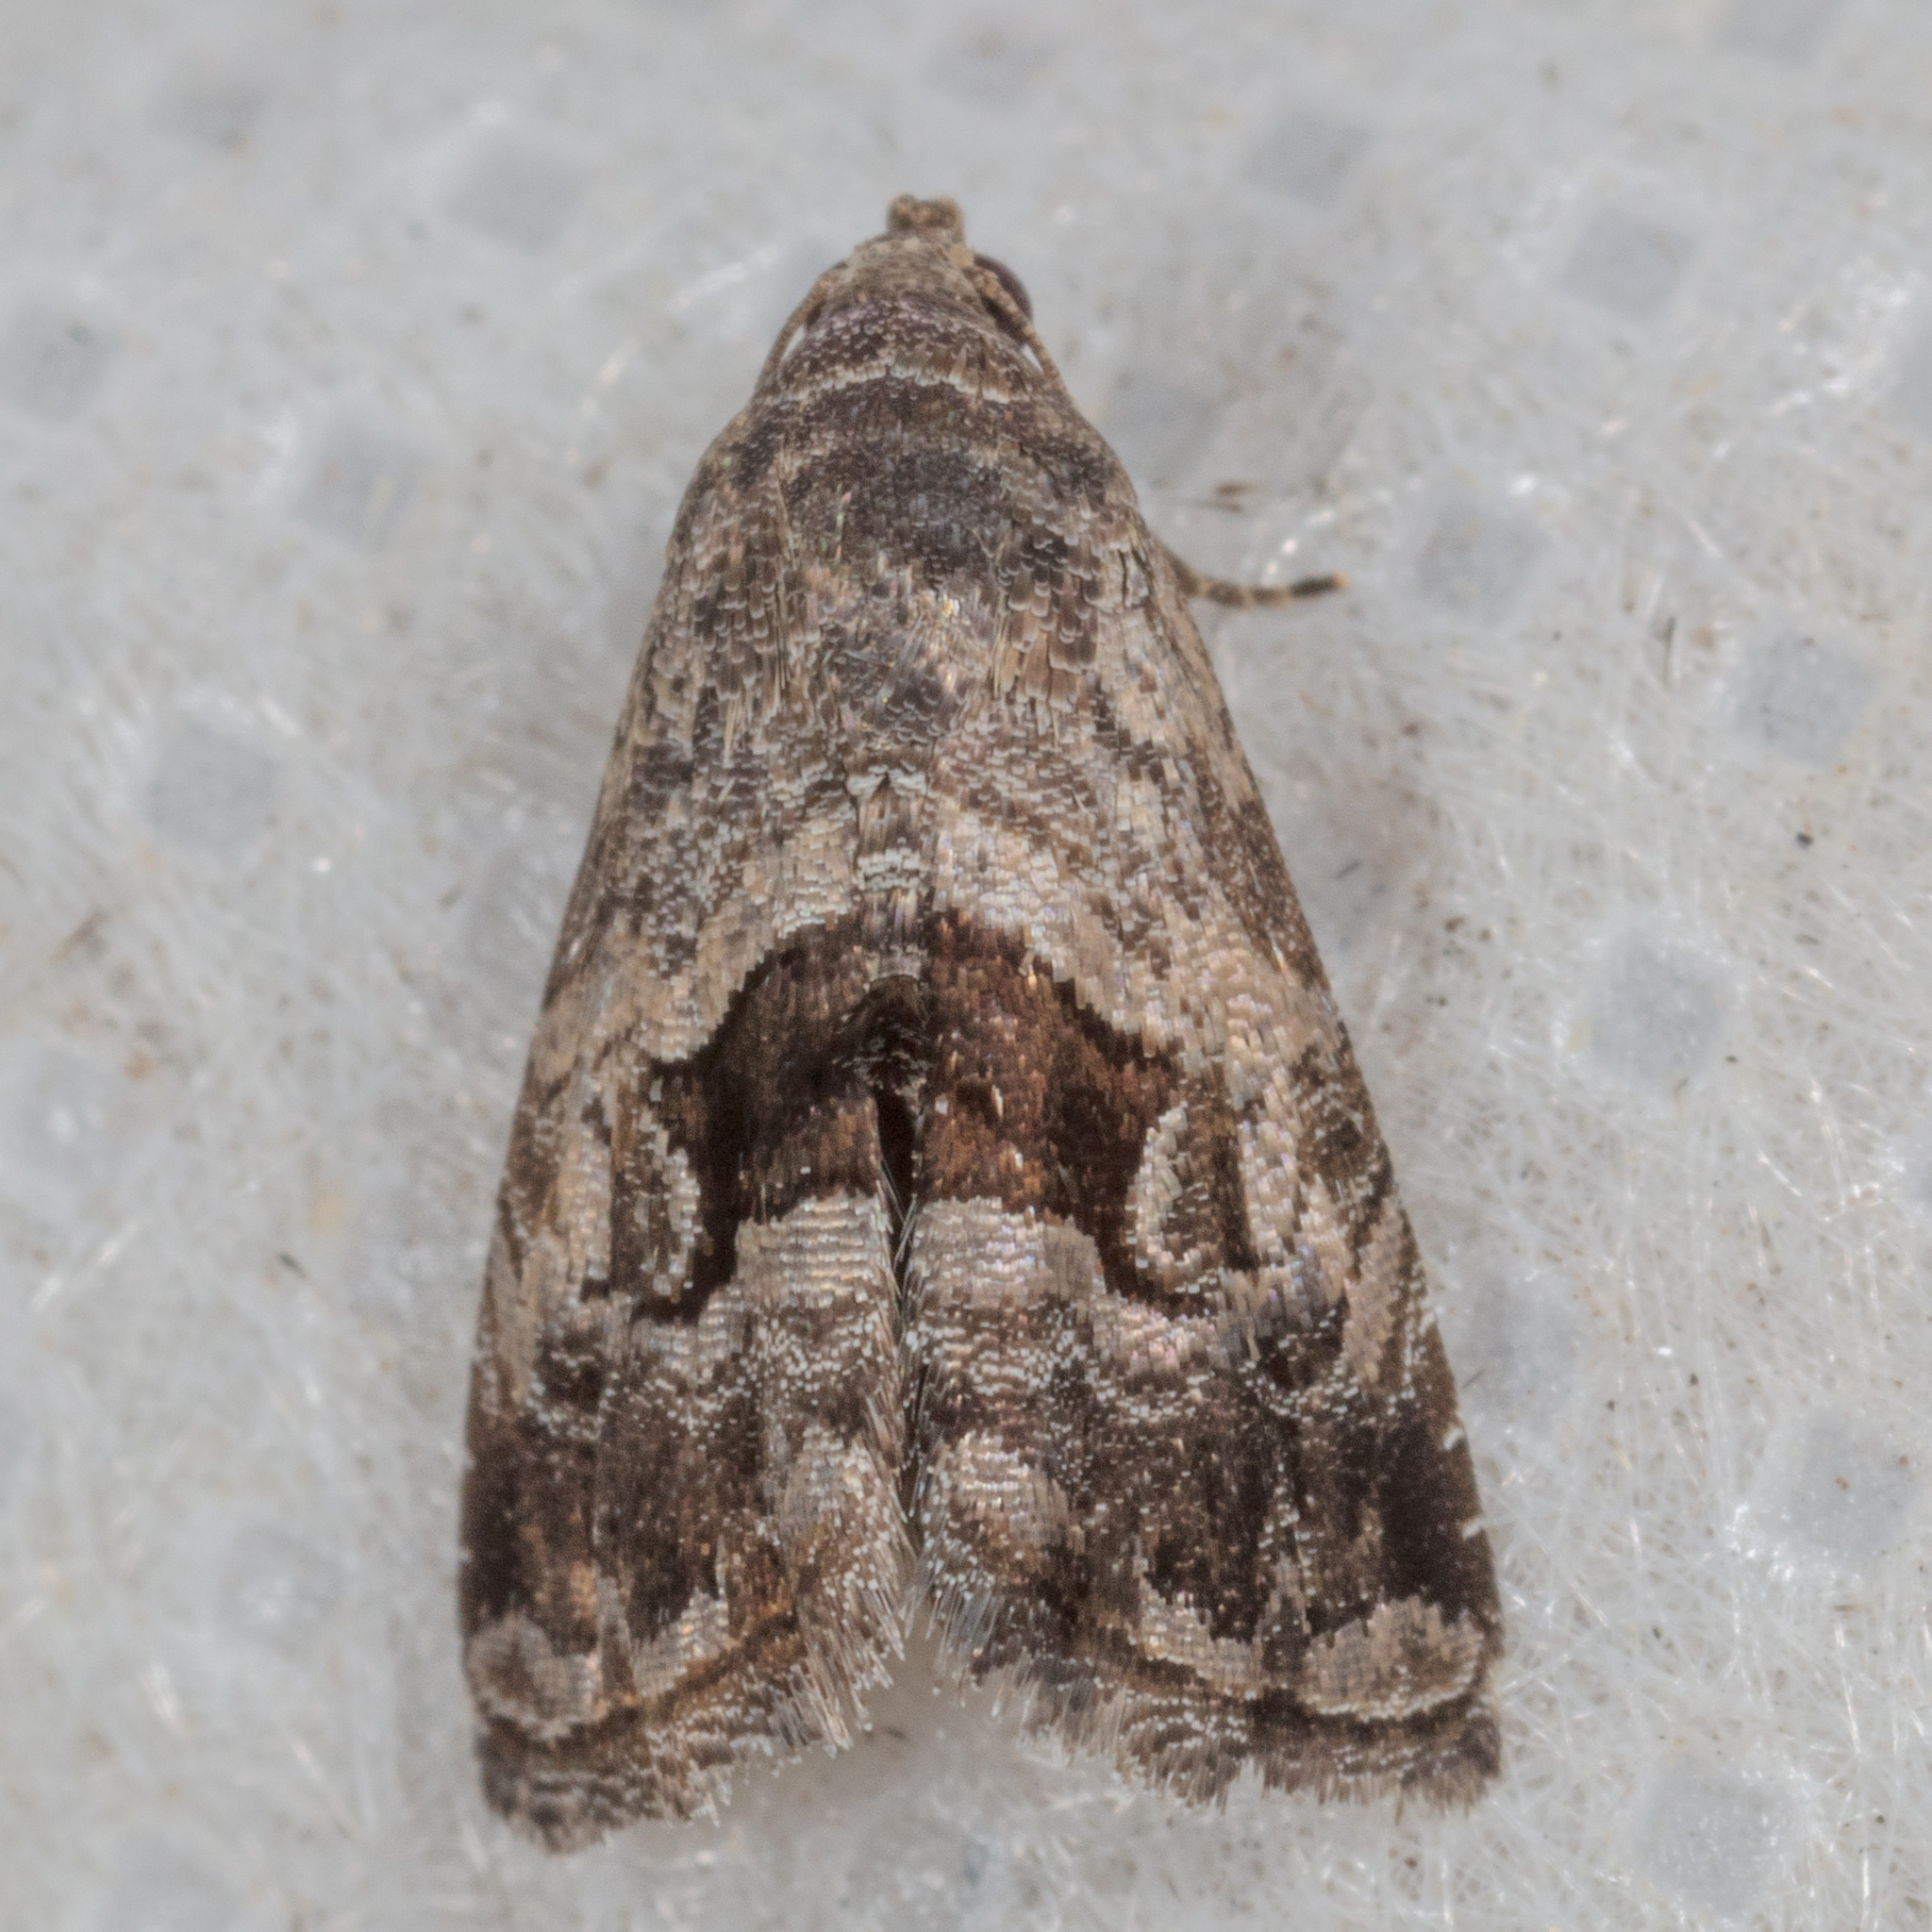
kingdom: Animalia
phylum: Arthropoda
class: Insecta
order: Lepidoptera
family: Noctuidae
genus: Tripudia
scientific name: Tripudia quadrifera
